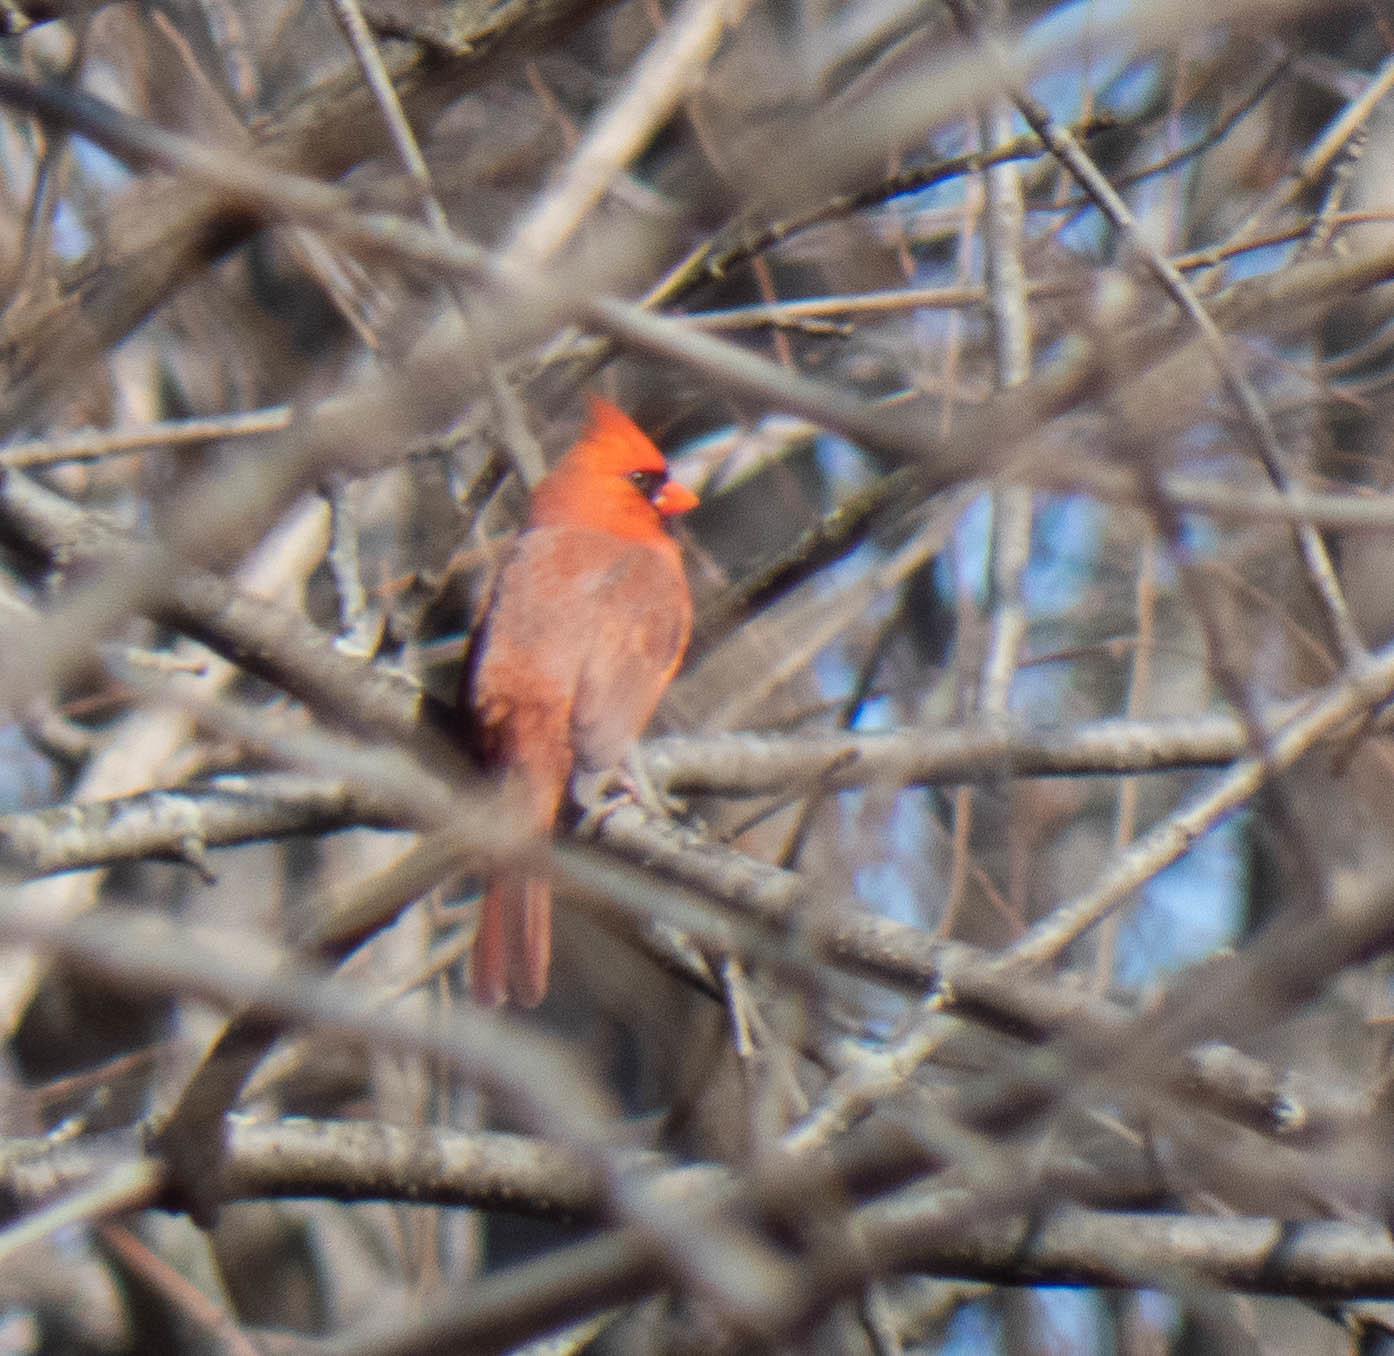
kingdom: Animalia
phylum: Chordata
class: Aves
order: Passeriformes
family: Cardinalidae
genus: Cardinalis
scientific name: Cardinalis cardinalis
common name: Northern cardinal
